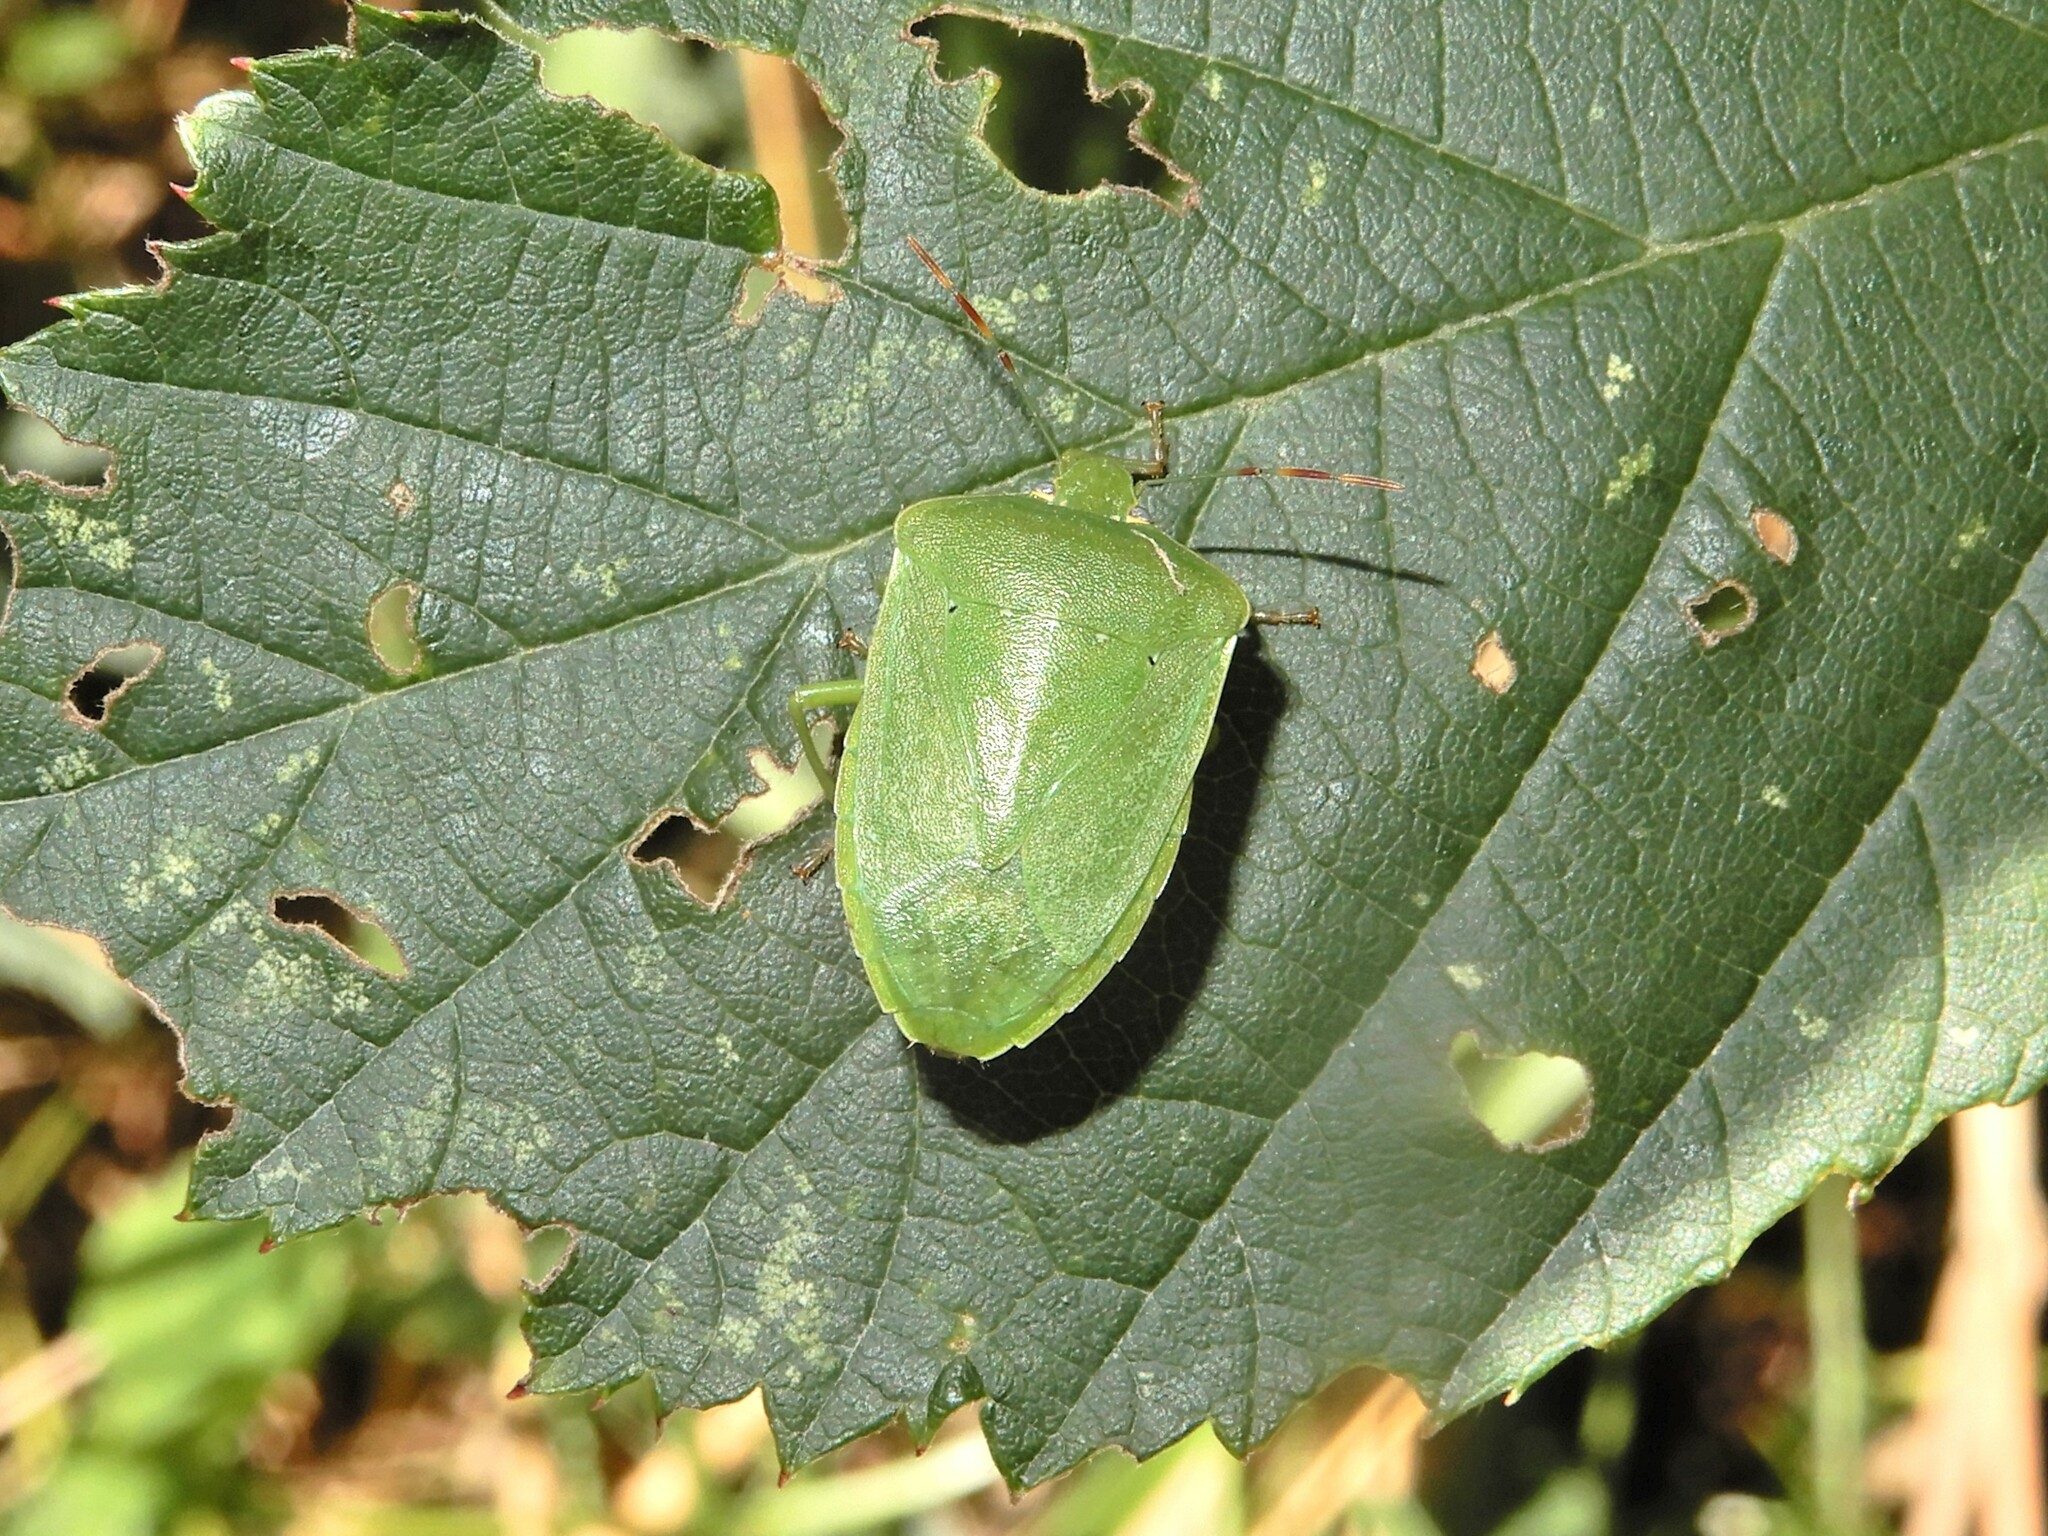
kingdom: Animalia
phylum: Arthropoda
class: Insecta
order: Hemiptera
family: Pentatomidae
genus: Nezara
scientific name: Nezara viridula
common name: Southern green stink bug
